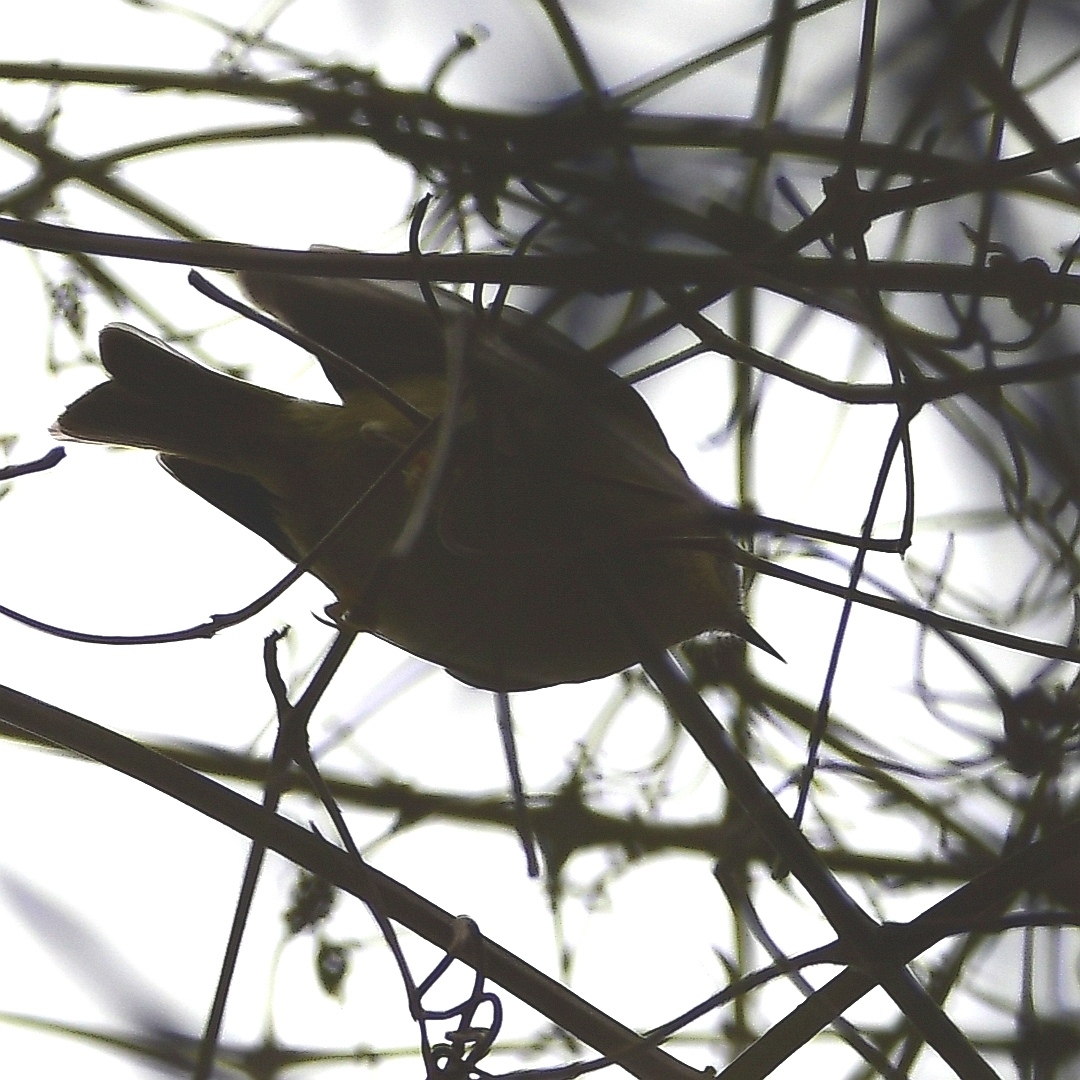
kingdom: Animalia
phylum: Chordata
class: Aves
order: Passeriformes
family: Regulidae
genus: Regulus
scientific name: Regulus regulus
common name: Goldcrest
